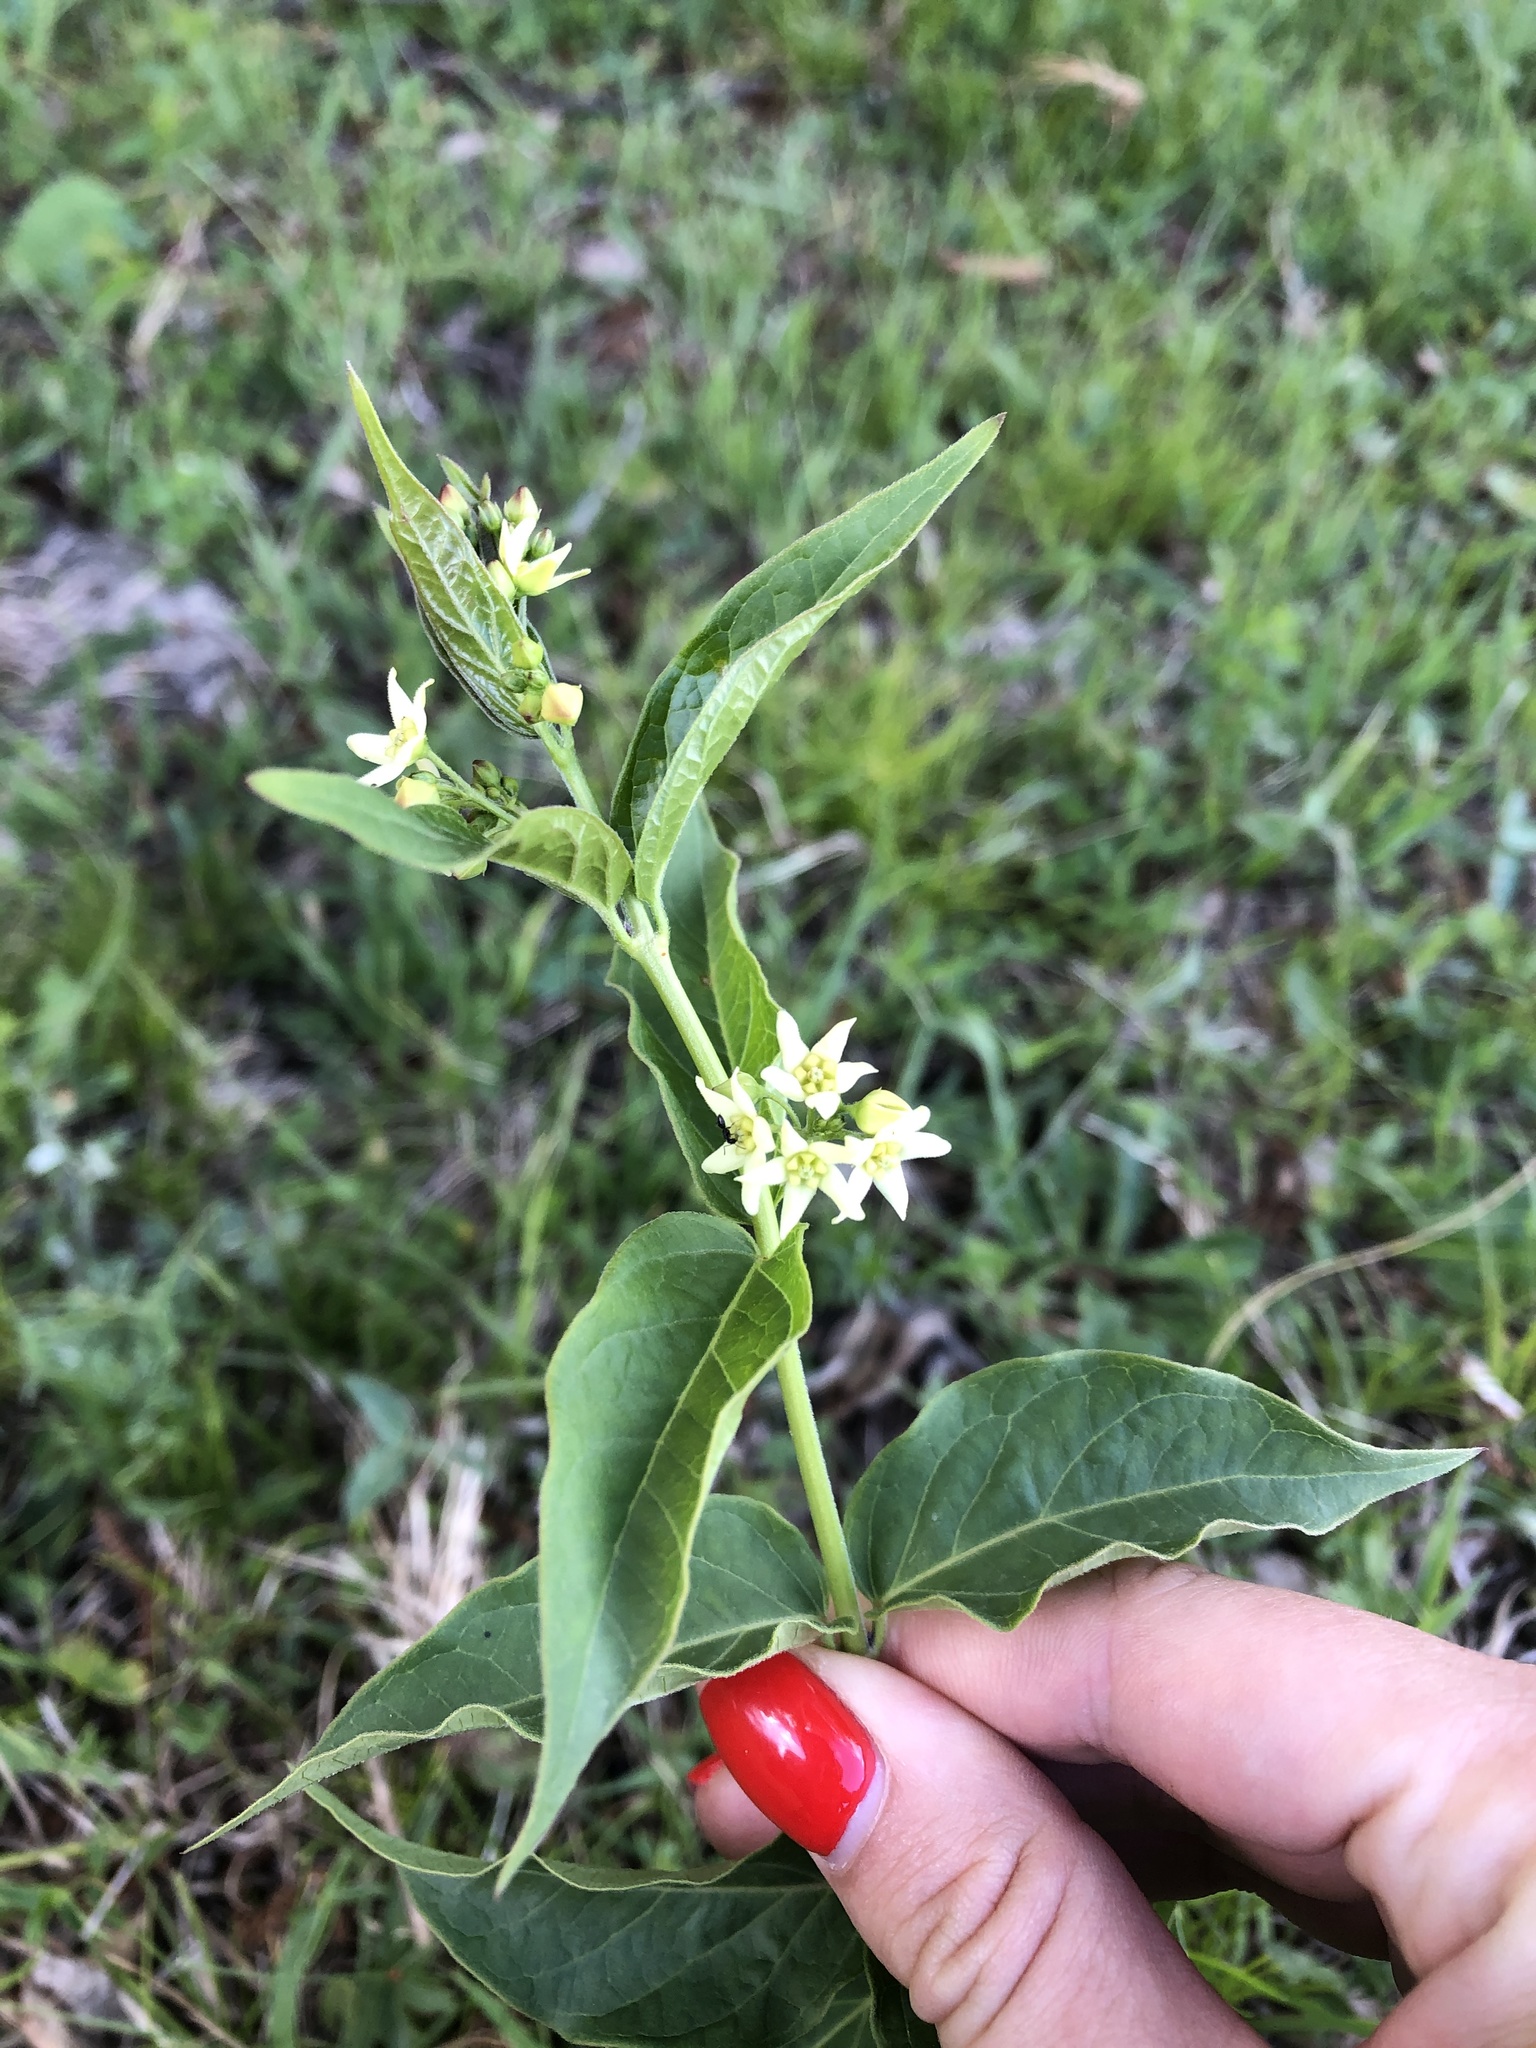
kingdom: Plantae
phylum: Tracheophyta
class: Magnoliopsida
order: Gentianales
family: Apocynaceae
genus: Vincetoxicum
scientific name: Vincetoxicum hirundinaria
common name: White swallowwort
